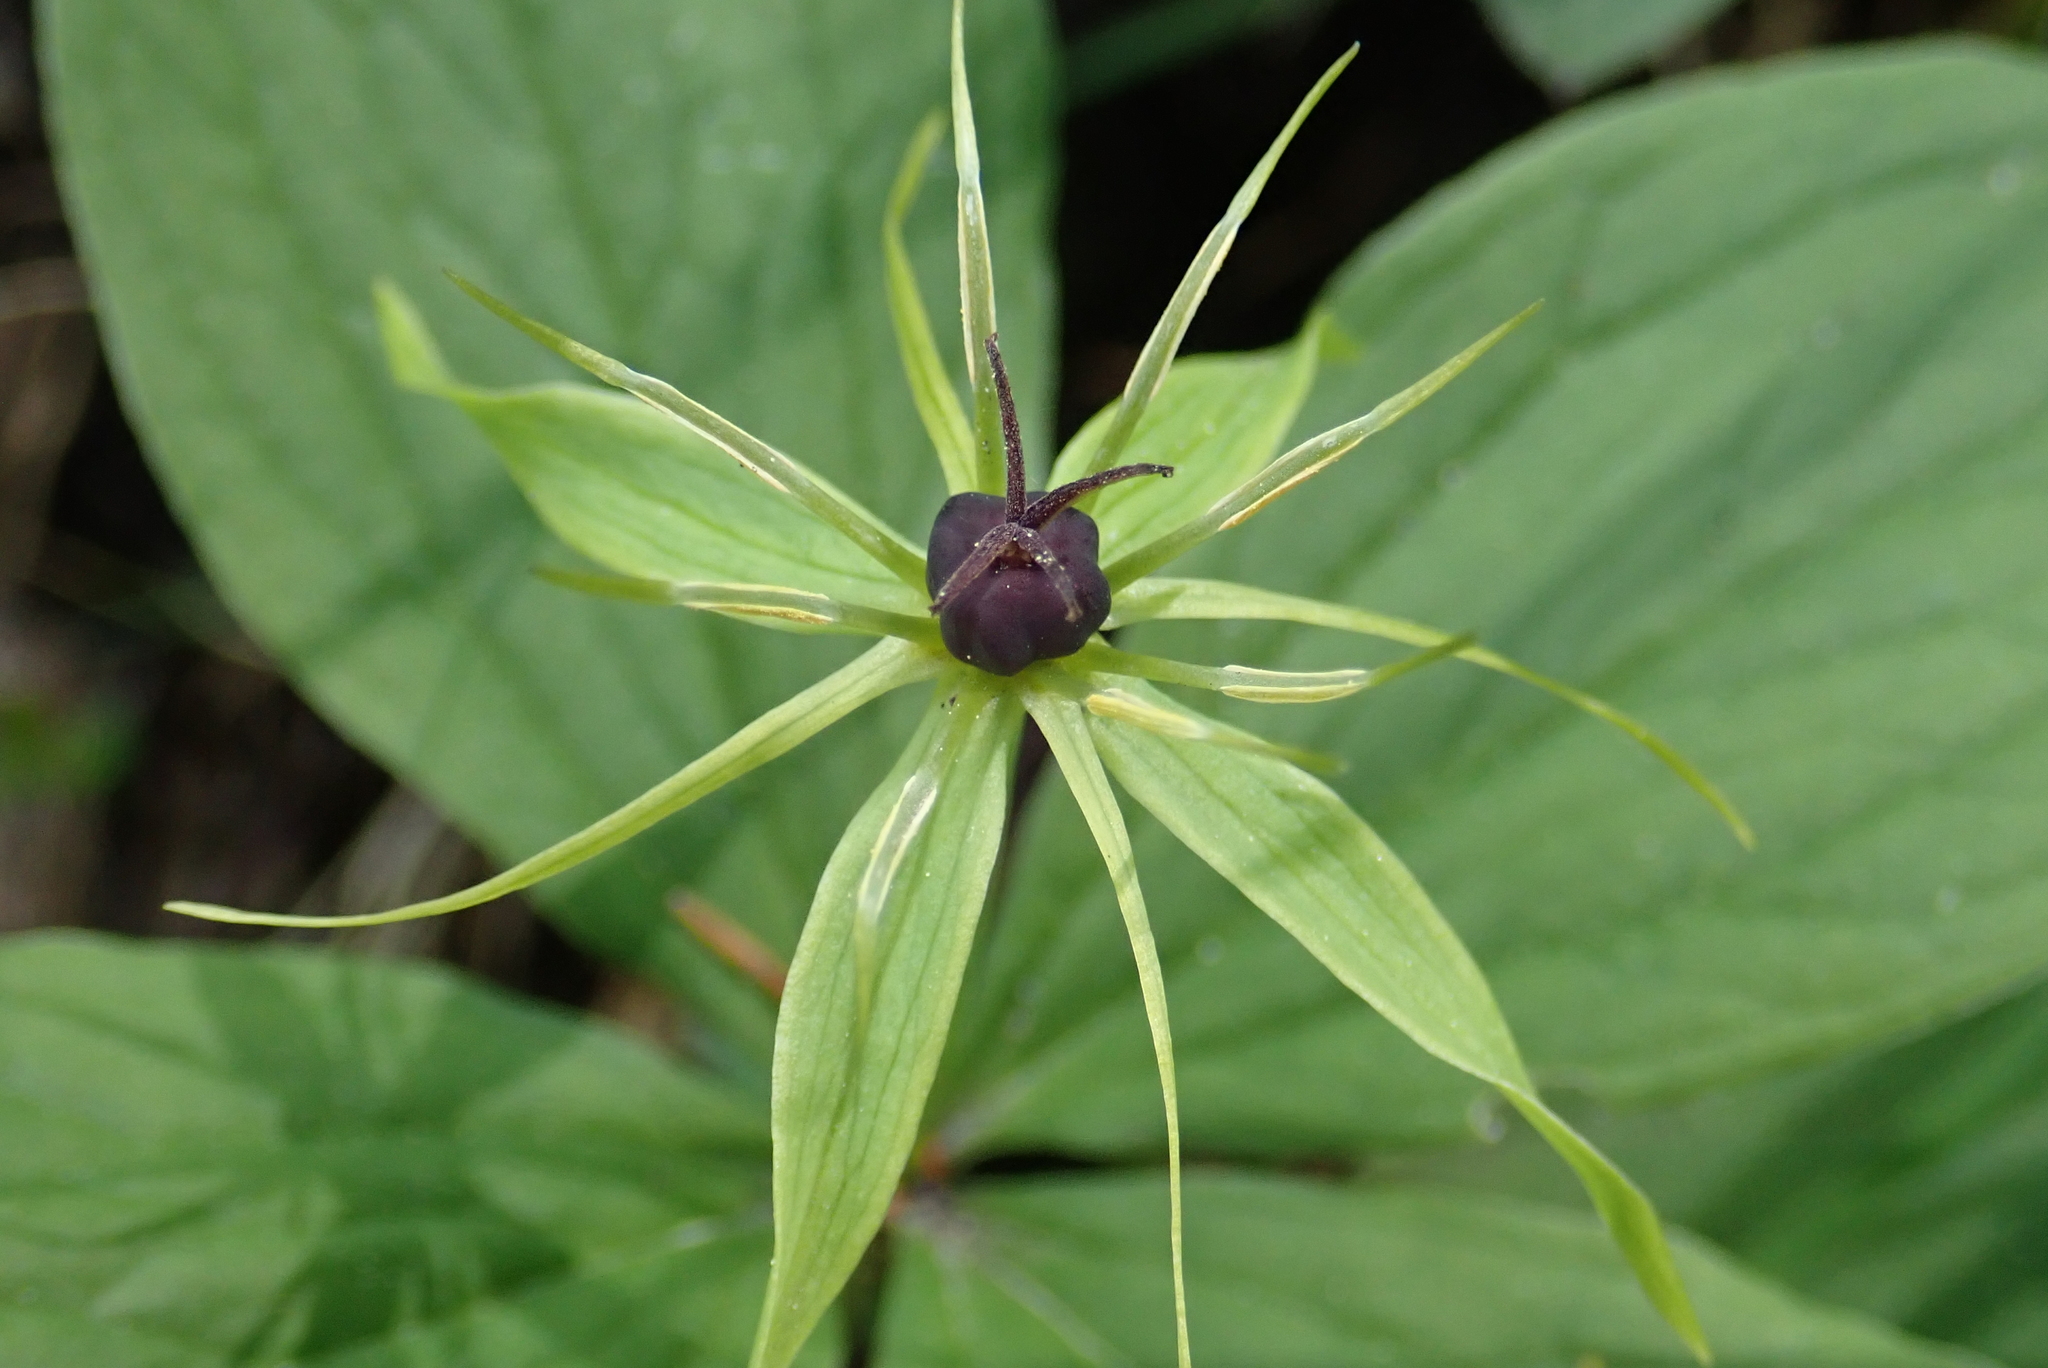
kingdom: Plantae
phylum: Tracheophyta
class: Liliopsida
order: Liliales
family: Melanthiaceae
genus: Paris
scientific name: Paris quadrifolia
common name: Herb-paris
